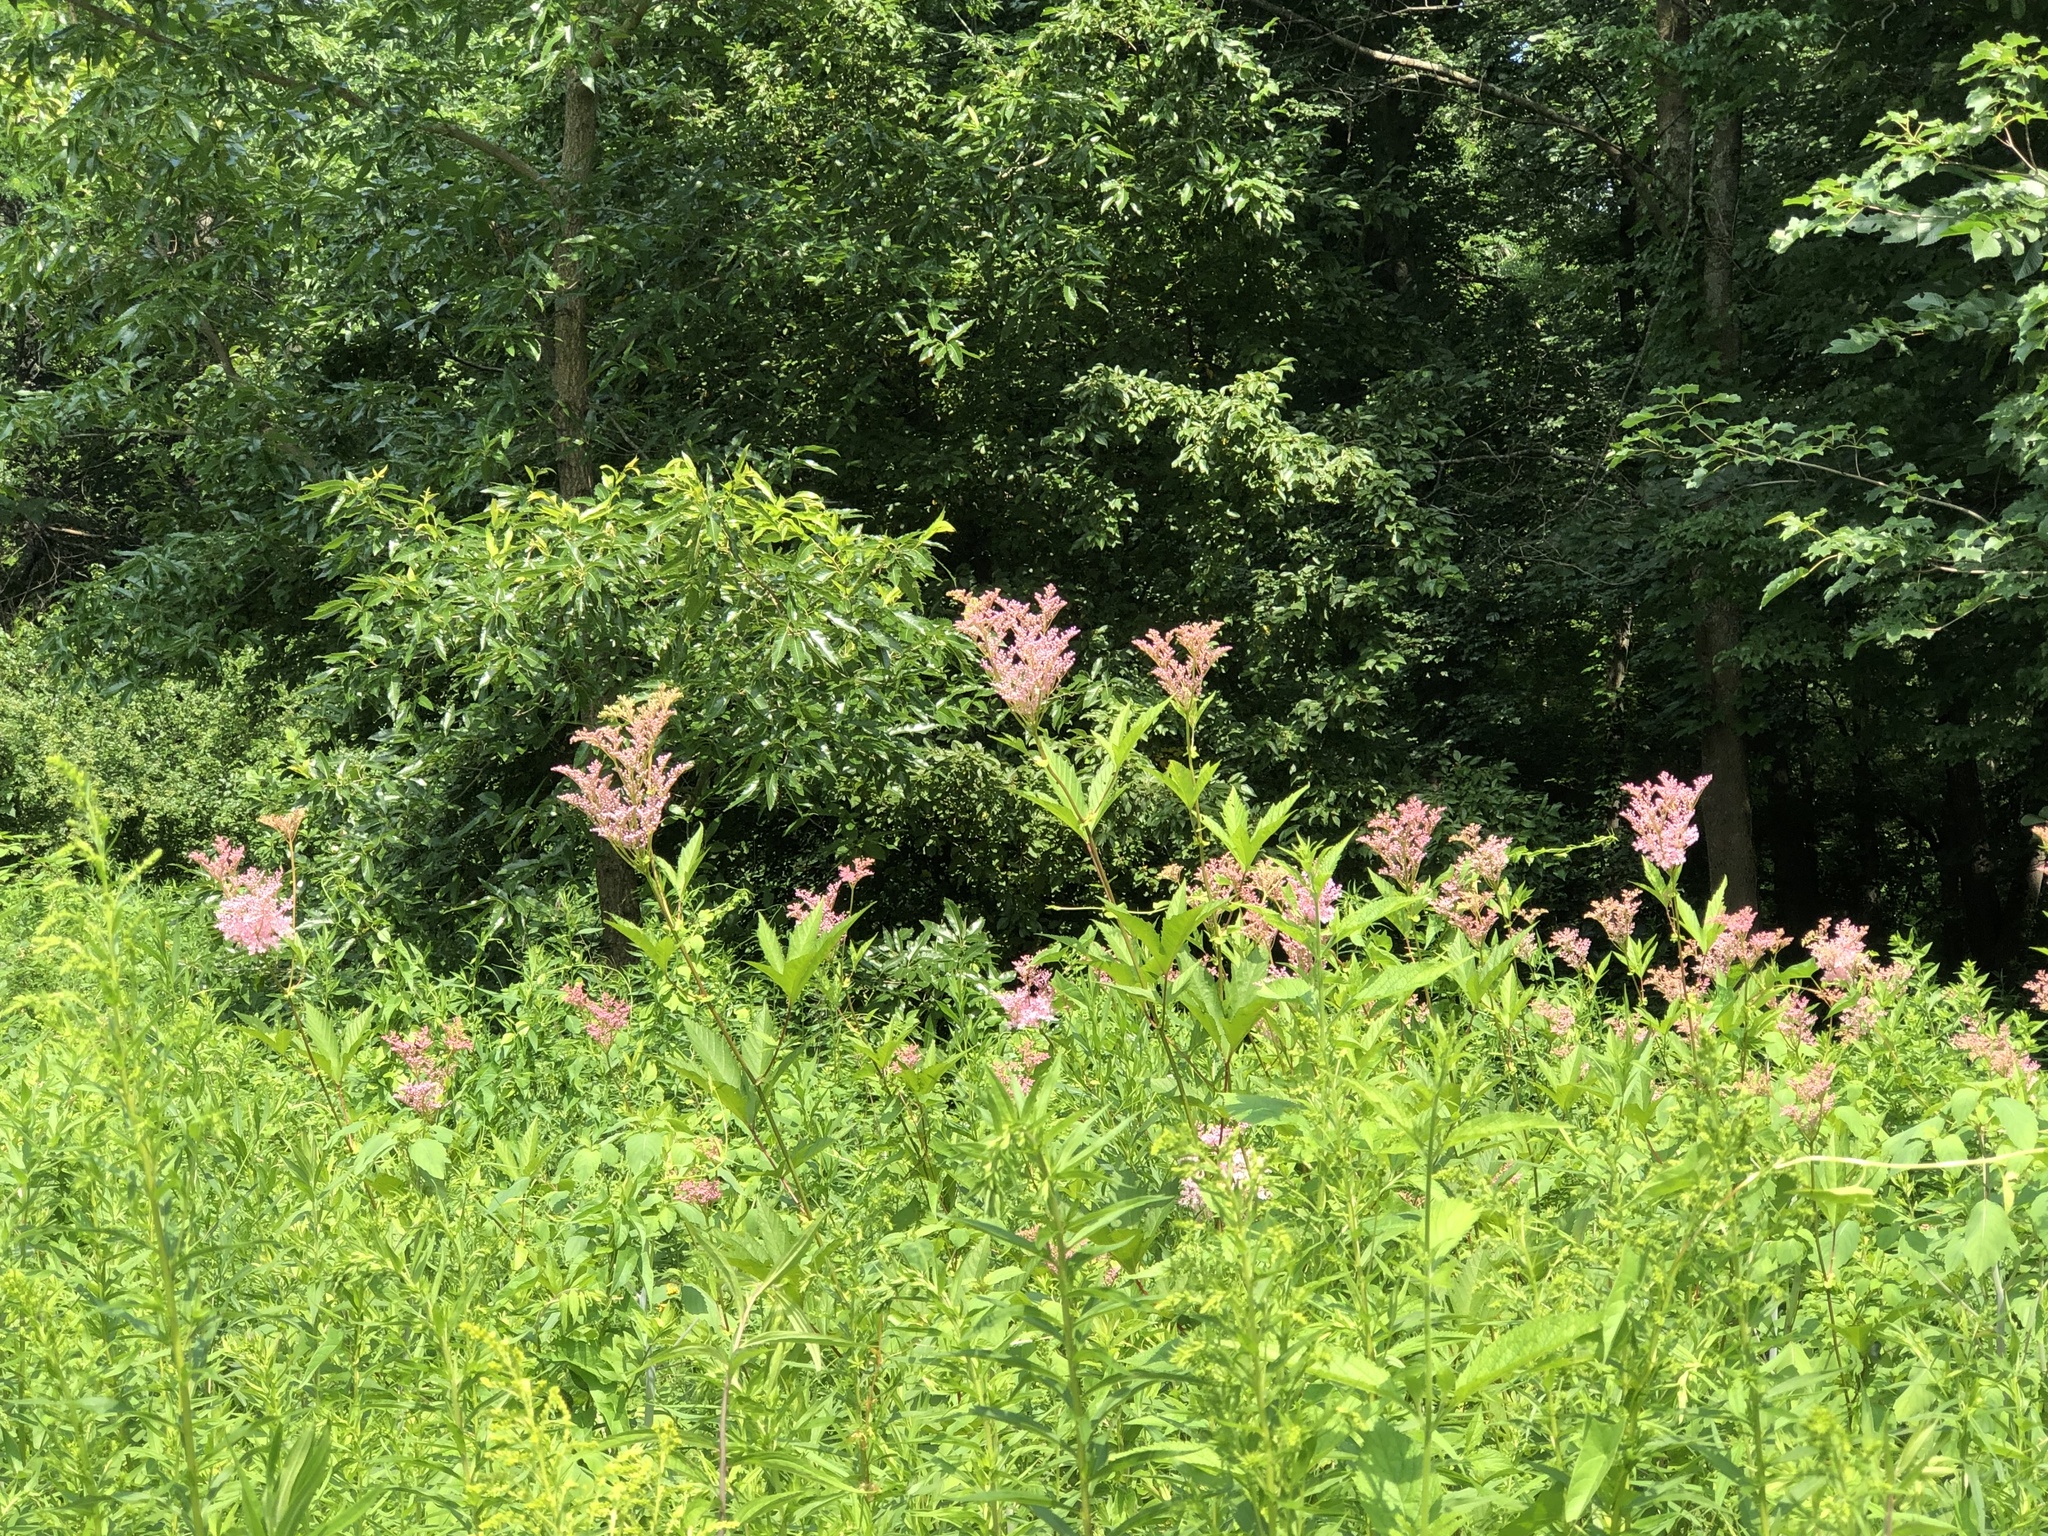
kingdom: Plantae
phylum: Tracheophyta
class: Magnoliopsida
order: Rosales
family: Rosaceae
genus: Filipendula
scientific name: Filipendula rubra
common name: Queen-of-the-prairie
